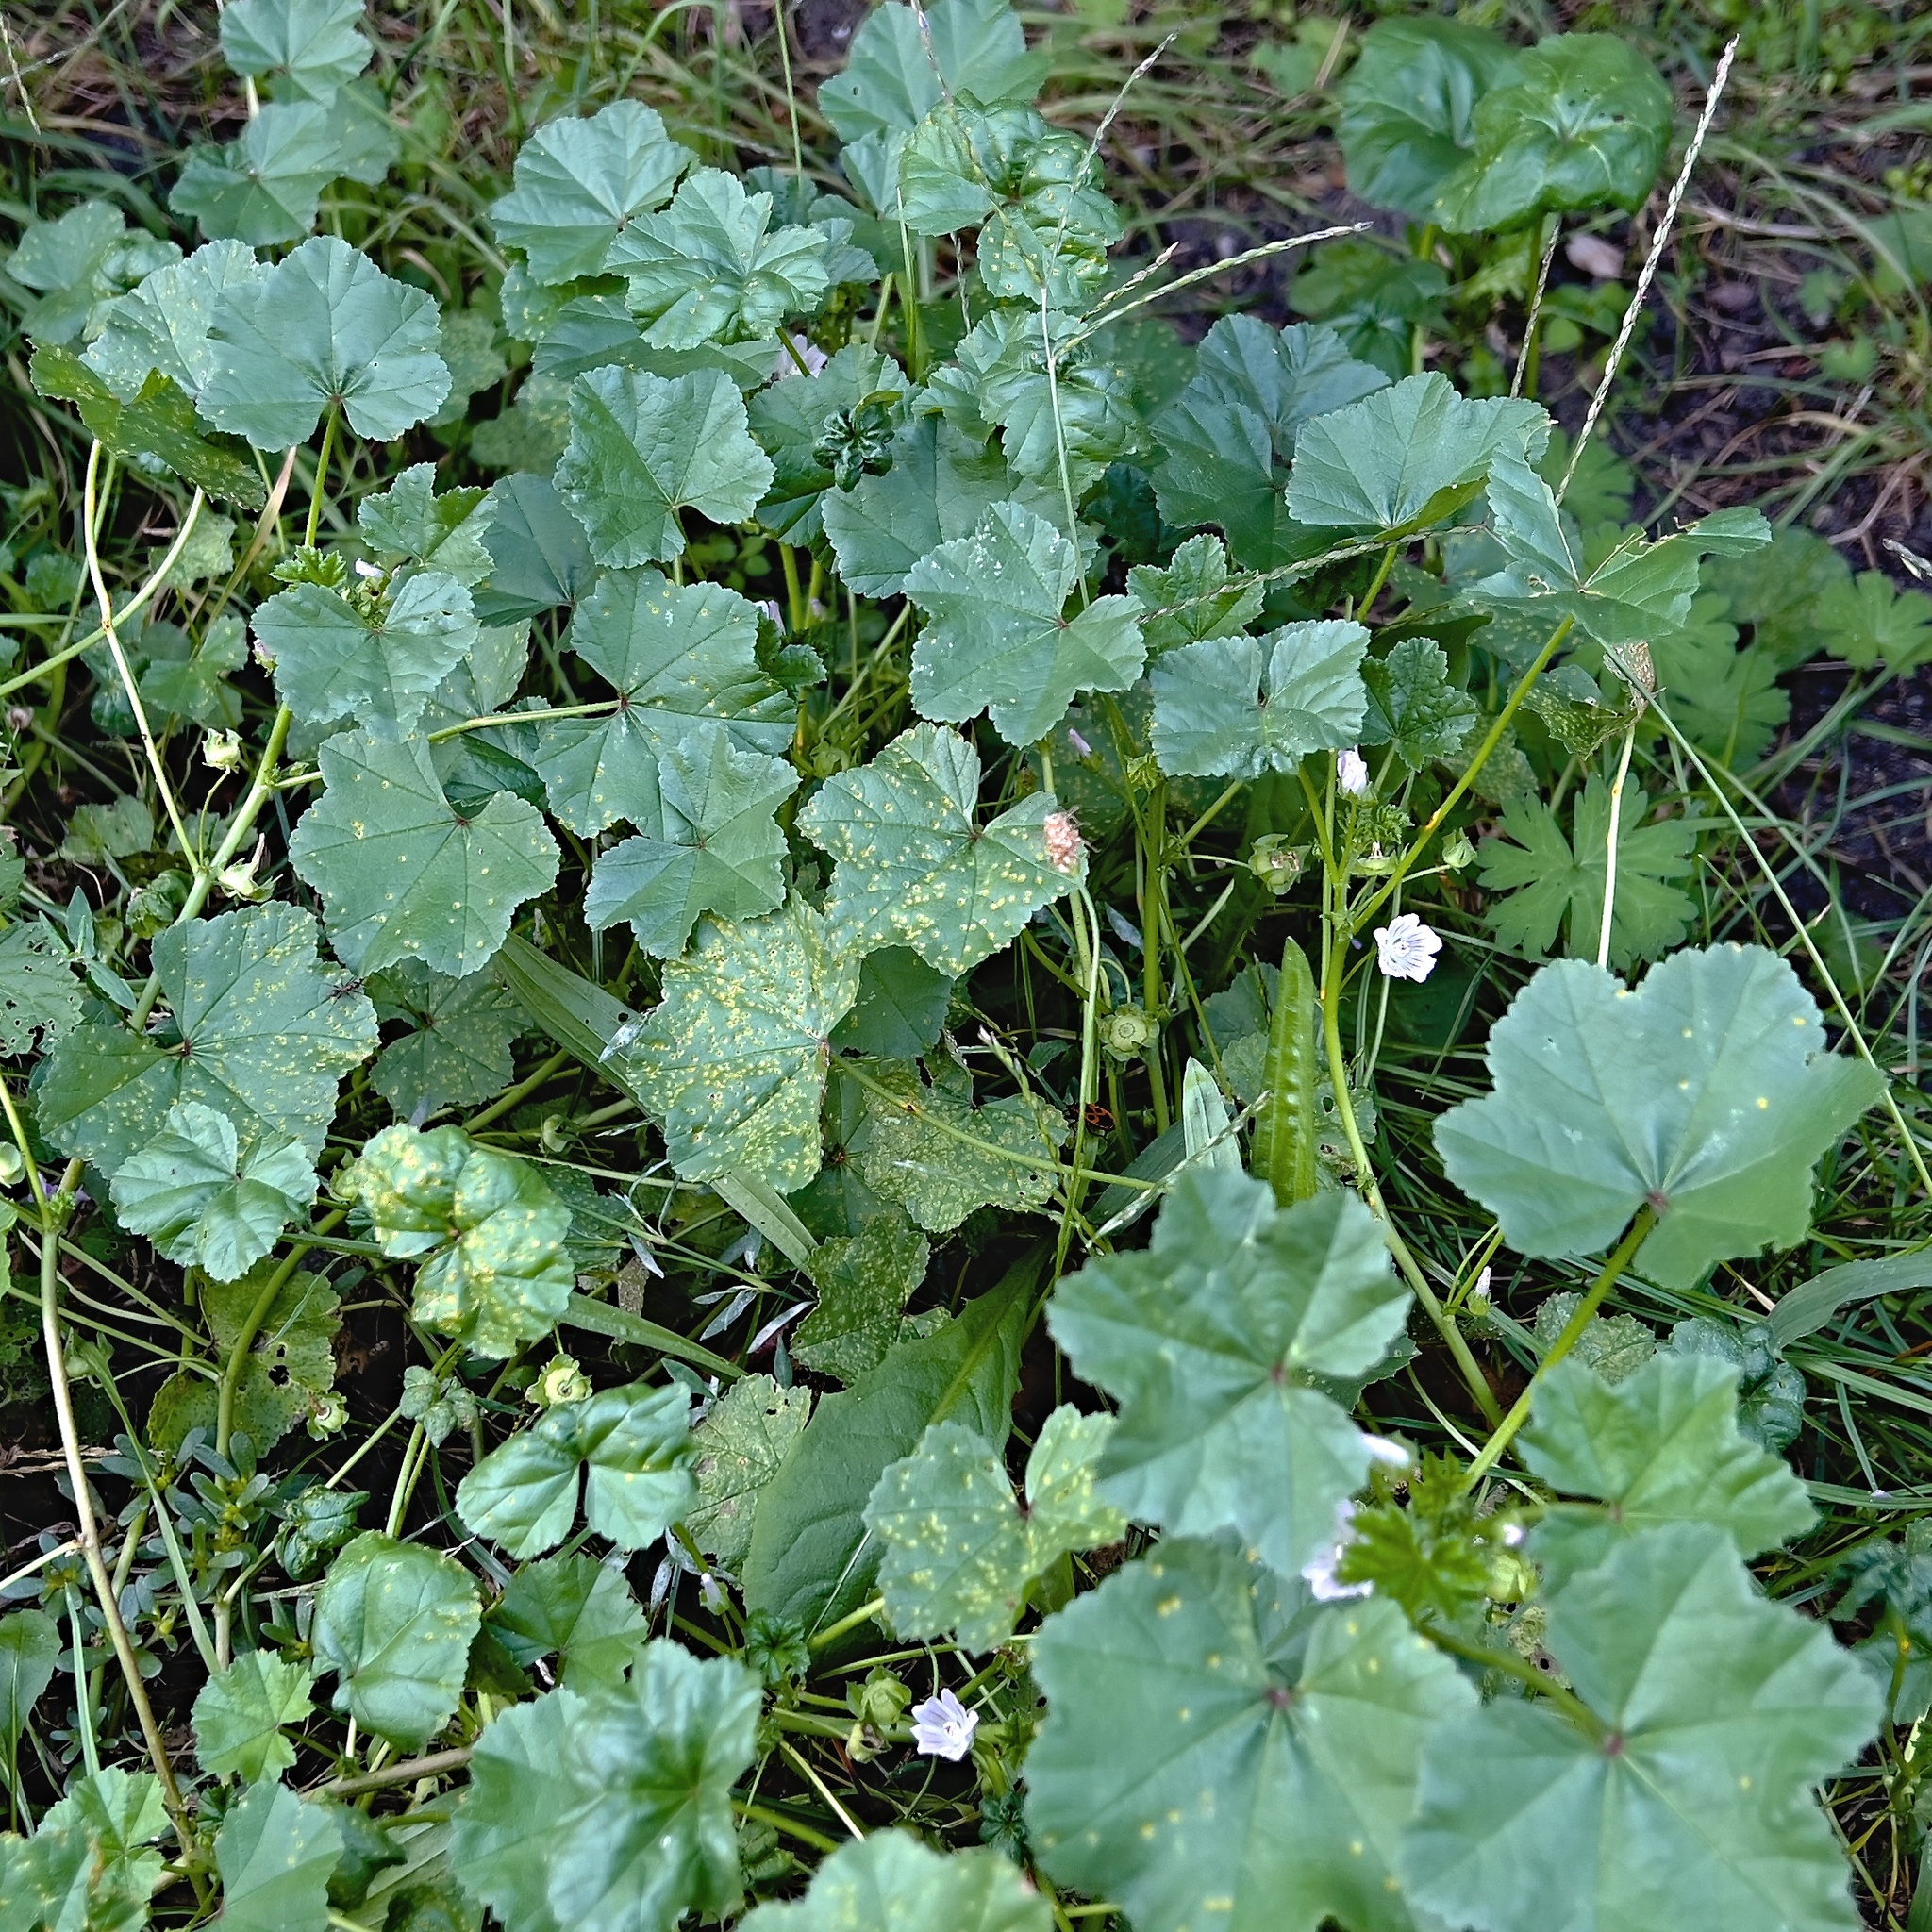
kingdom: Plantae
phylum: Tracheophyta
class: Magnoliopsida
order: Malvales
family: Malvaceae
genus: Malva
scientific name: Malva neglecta
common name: Common mallow
